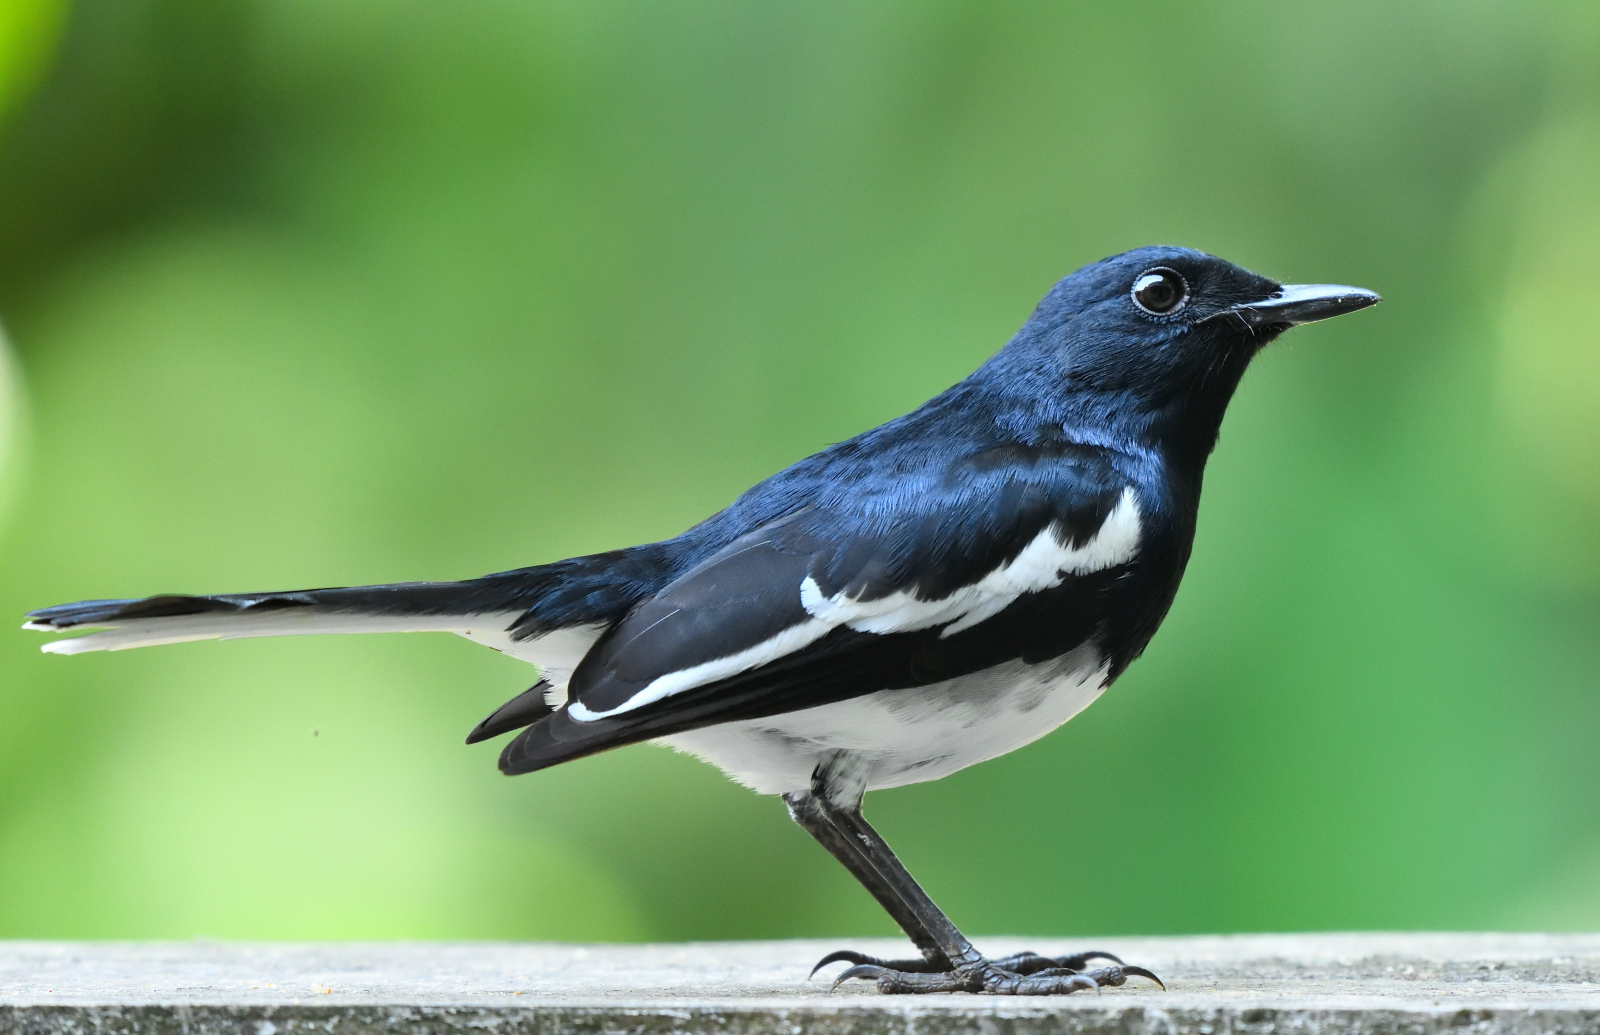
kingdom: Animalia
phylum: Chordata
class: Aves
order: Passeriformes
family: Muscicapidae
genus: Copsychus
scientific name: Copsychus saularis
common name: Oriental magpie-robin
